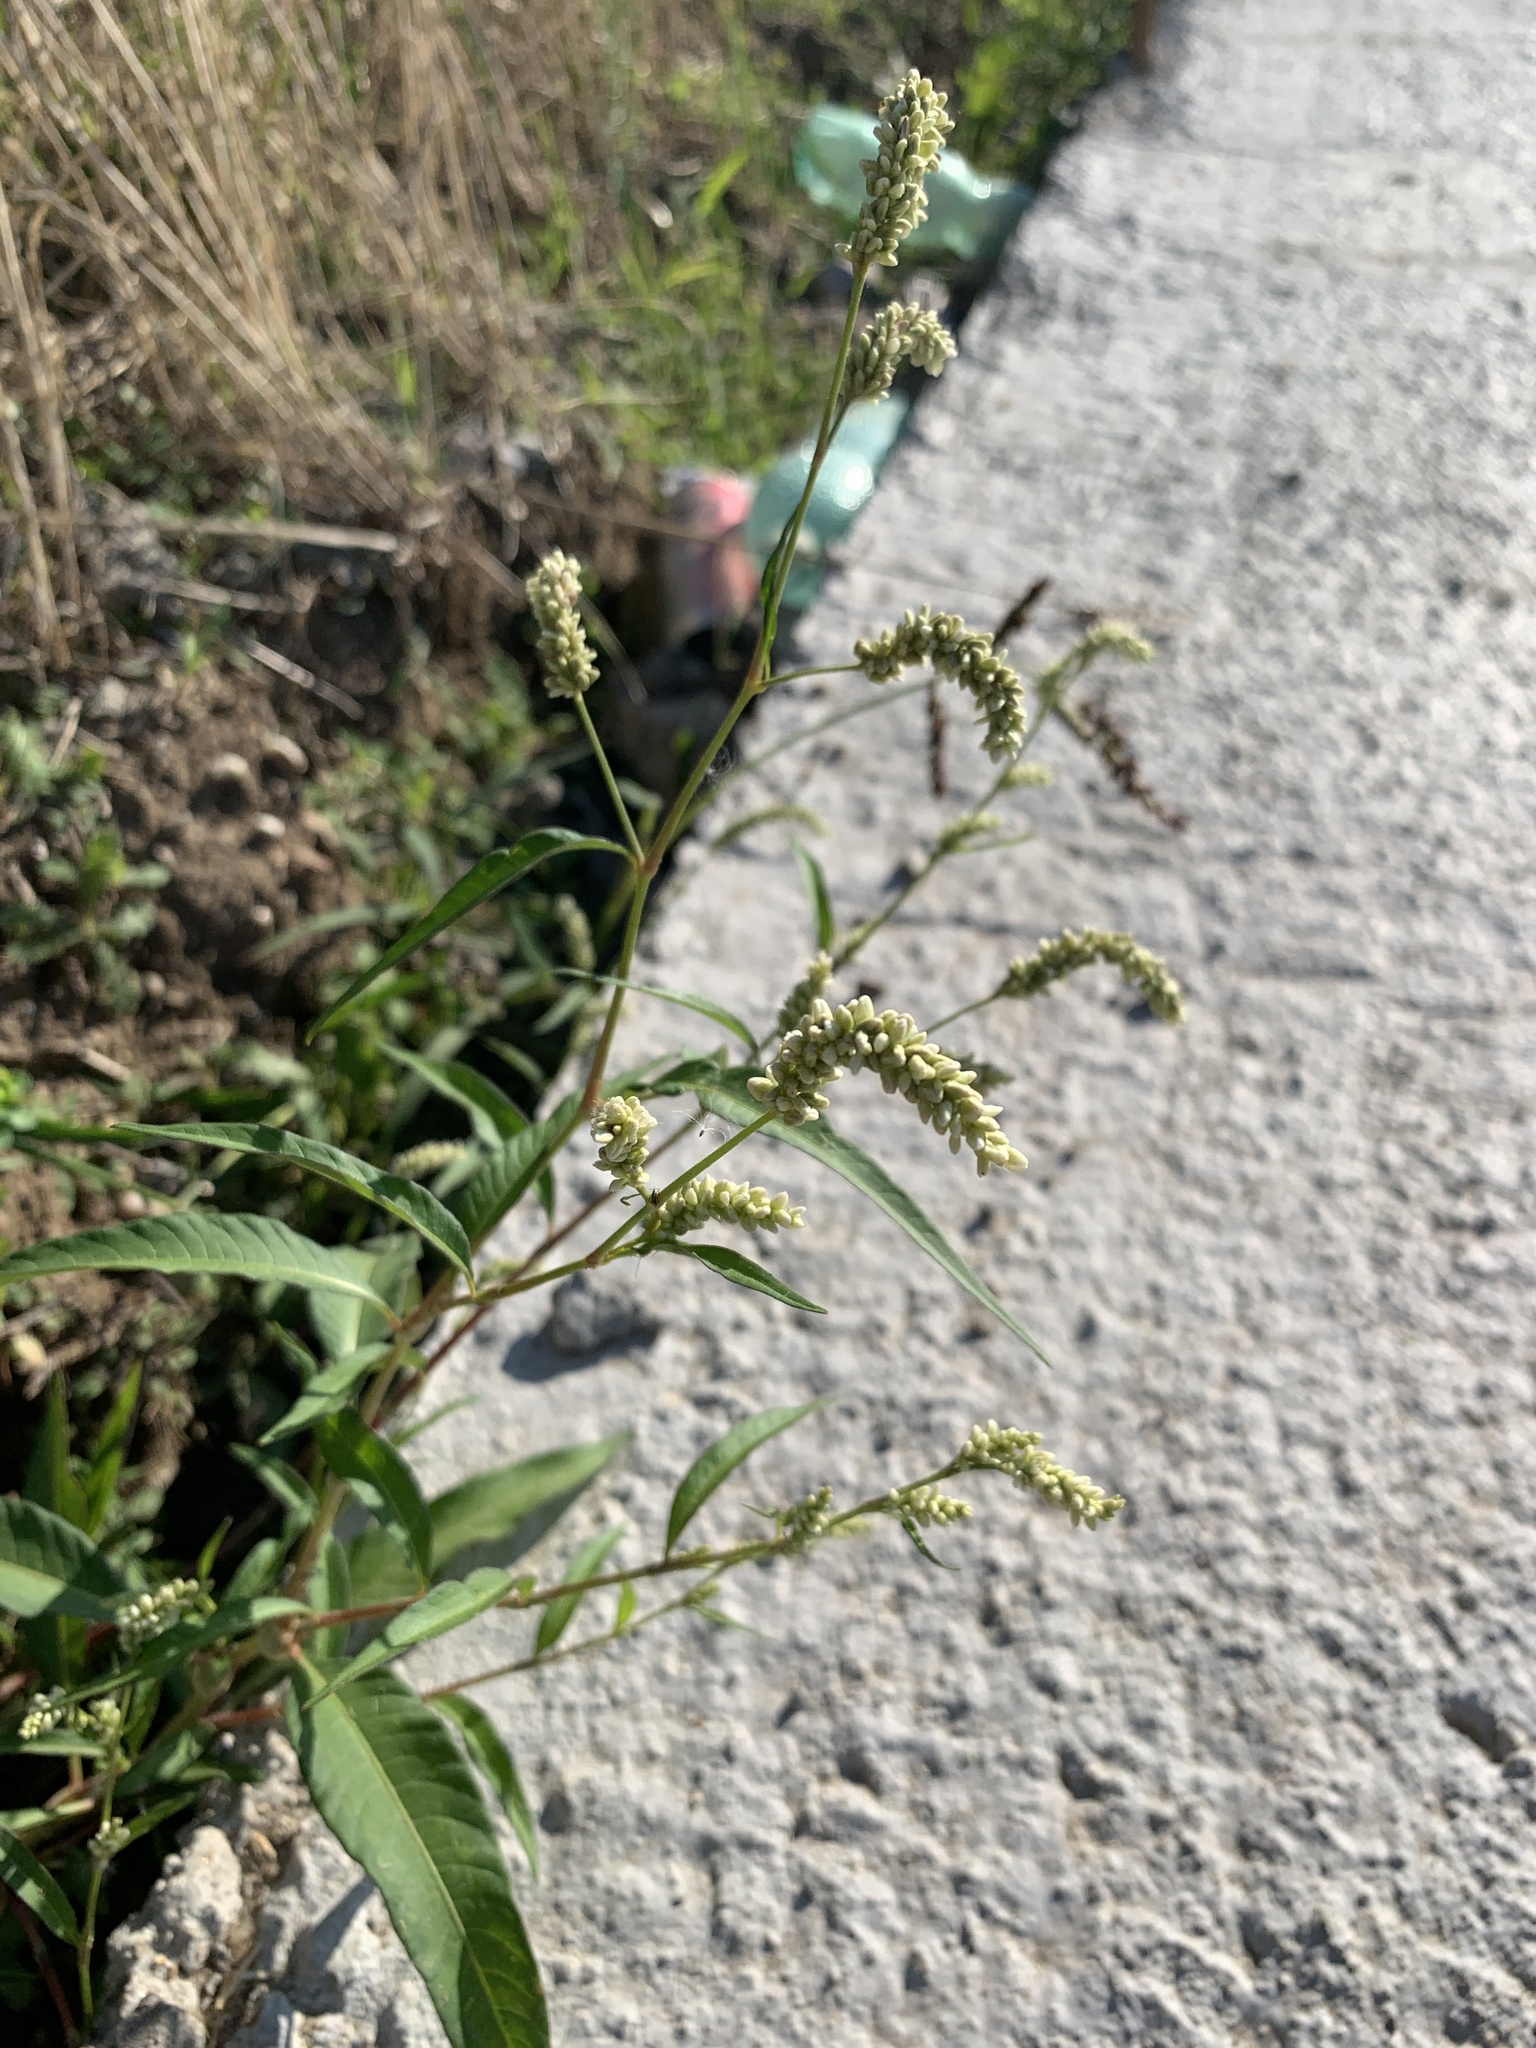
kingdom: Plantae
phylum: Tracheophyta
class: Magnoliopsida
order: Caryophyllales
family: Polygonaceae
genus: Persicaria
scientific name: Persicaria lapathifolia
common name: Curlytop knotweed
